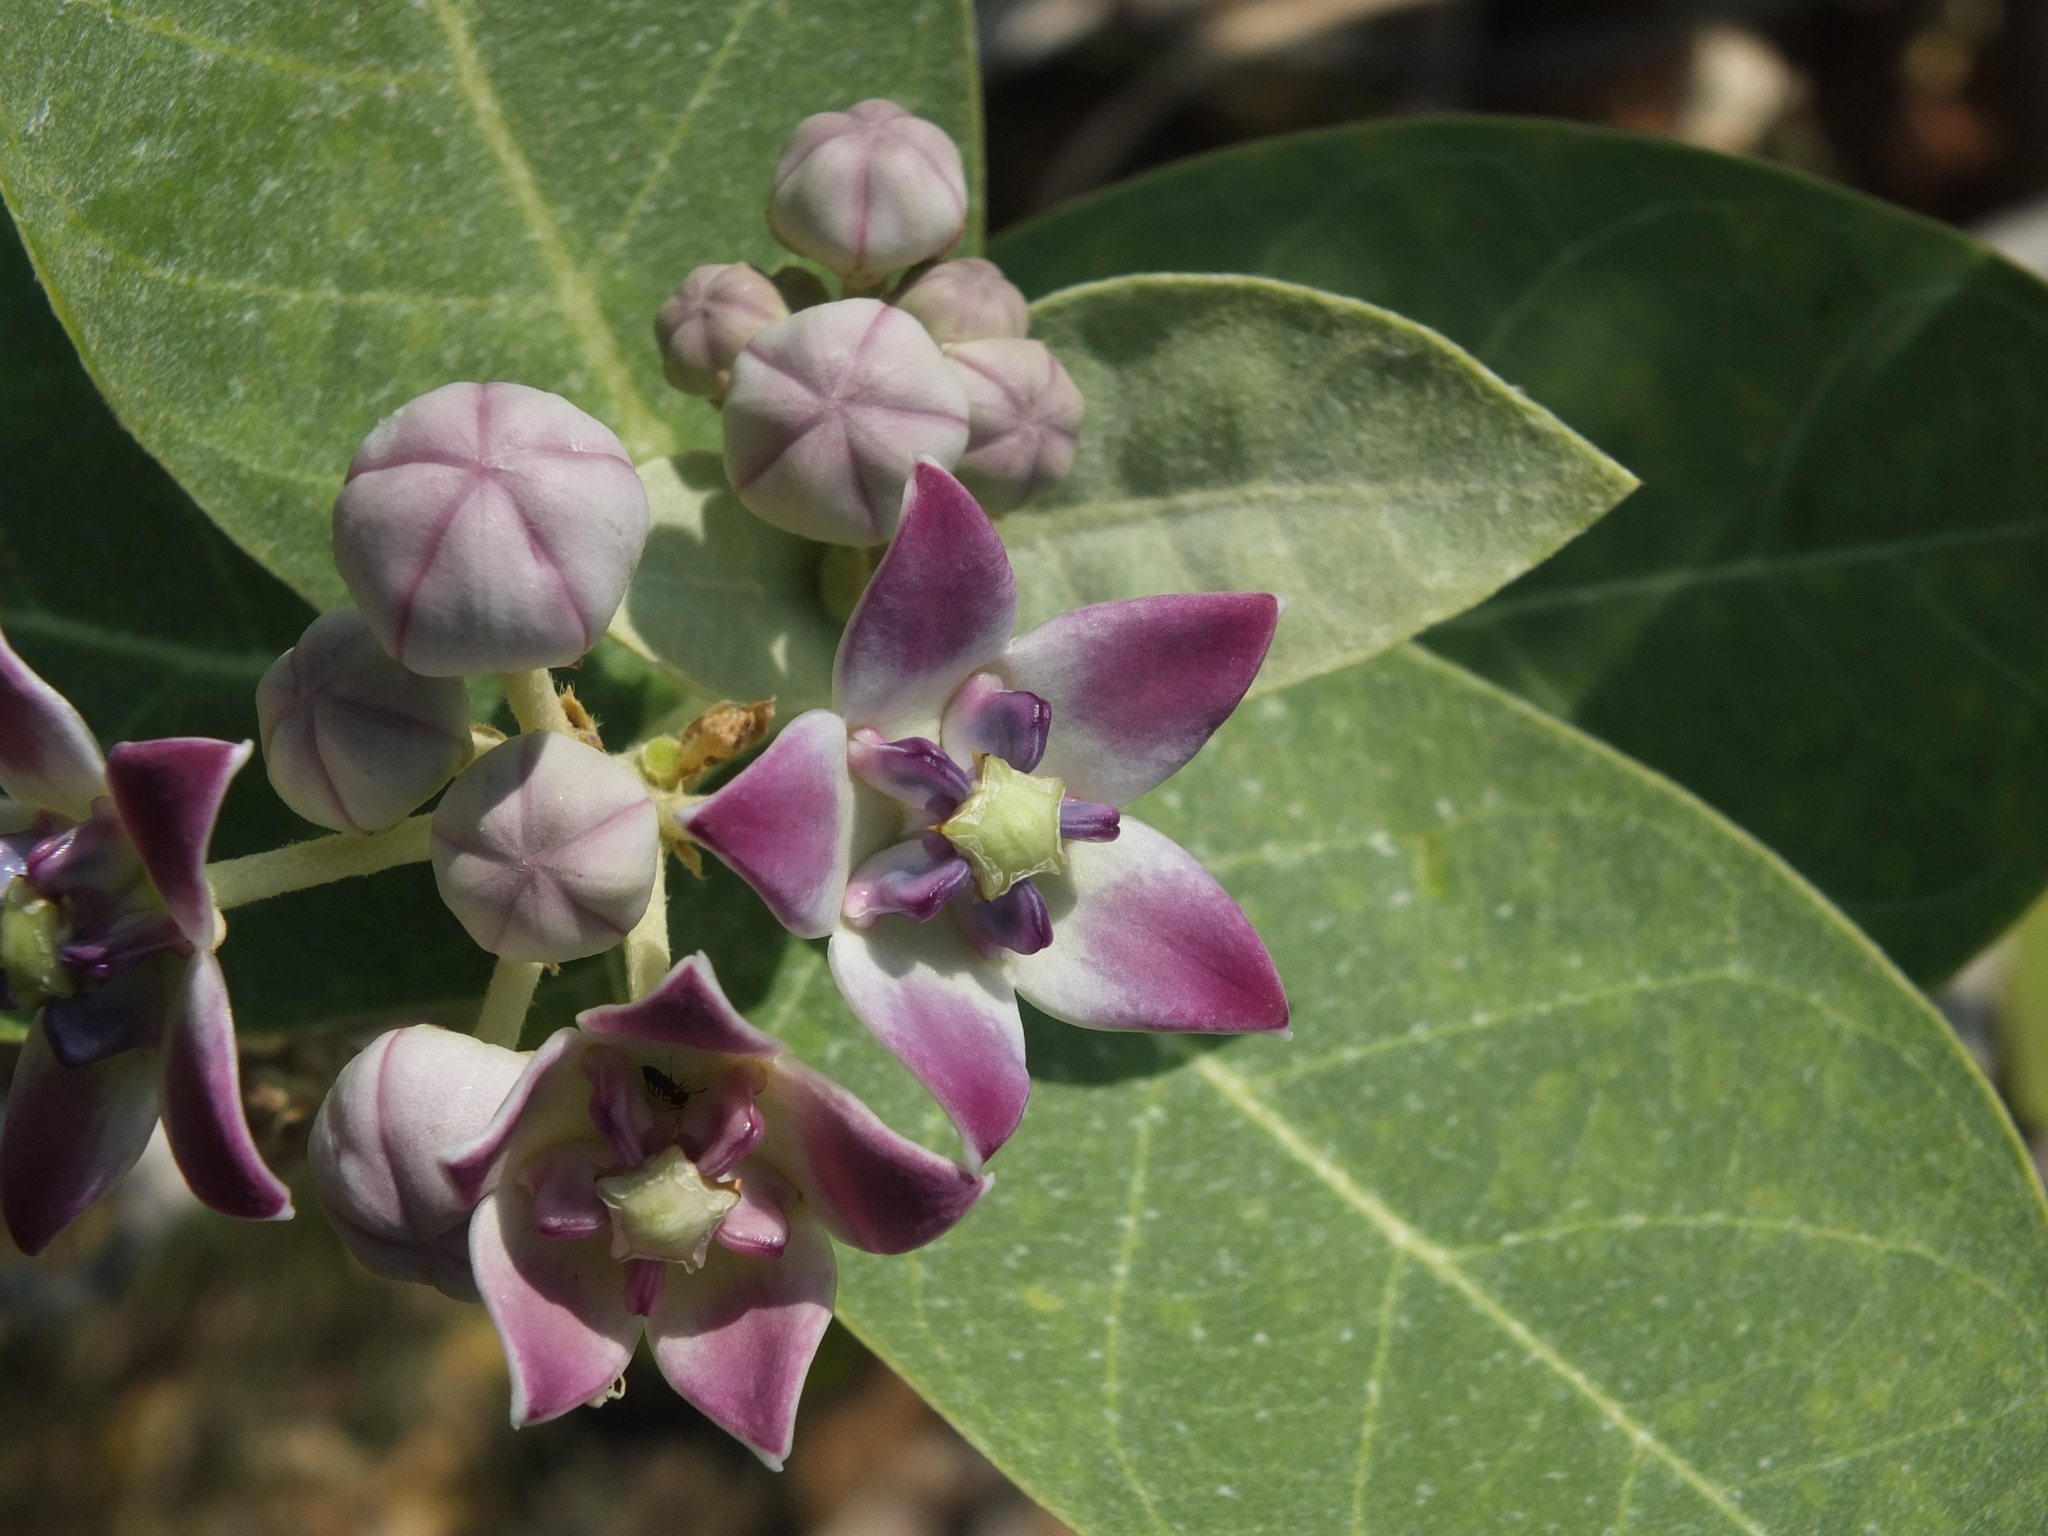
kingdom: Plantae
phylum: Tracheophyta
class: Magnoliopsida
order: Gentianales
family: Apocynaceae
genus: Calotropis
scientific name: Calotropis procera
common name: Roostertree
